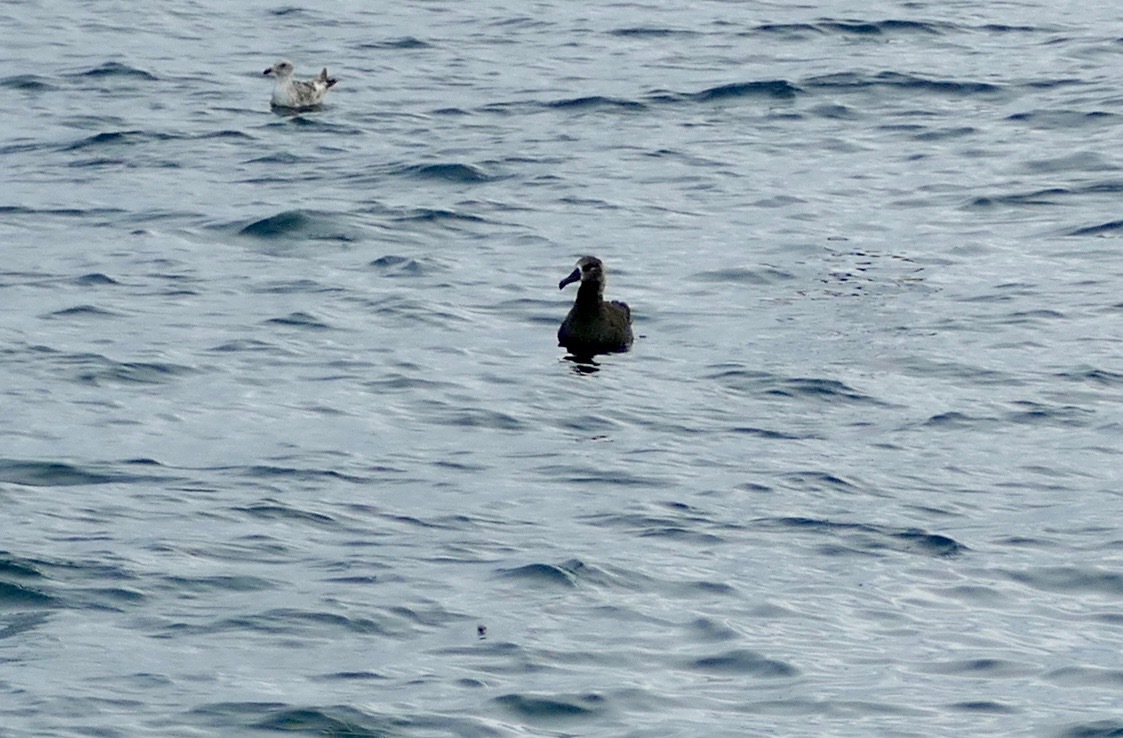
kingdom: Animalia
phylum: Chordata
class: Aves
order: Procellariiformes
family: Diomedeidae
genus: Phoebastria
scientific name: Phoebastria nigripes
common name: Black-footed albatross
